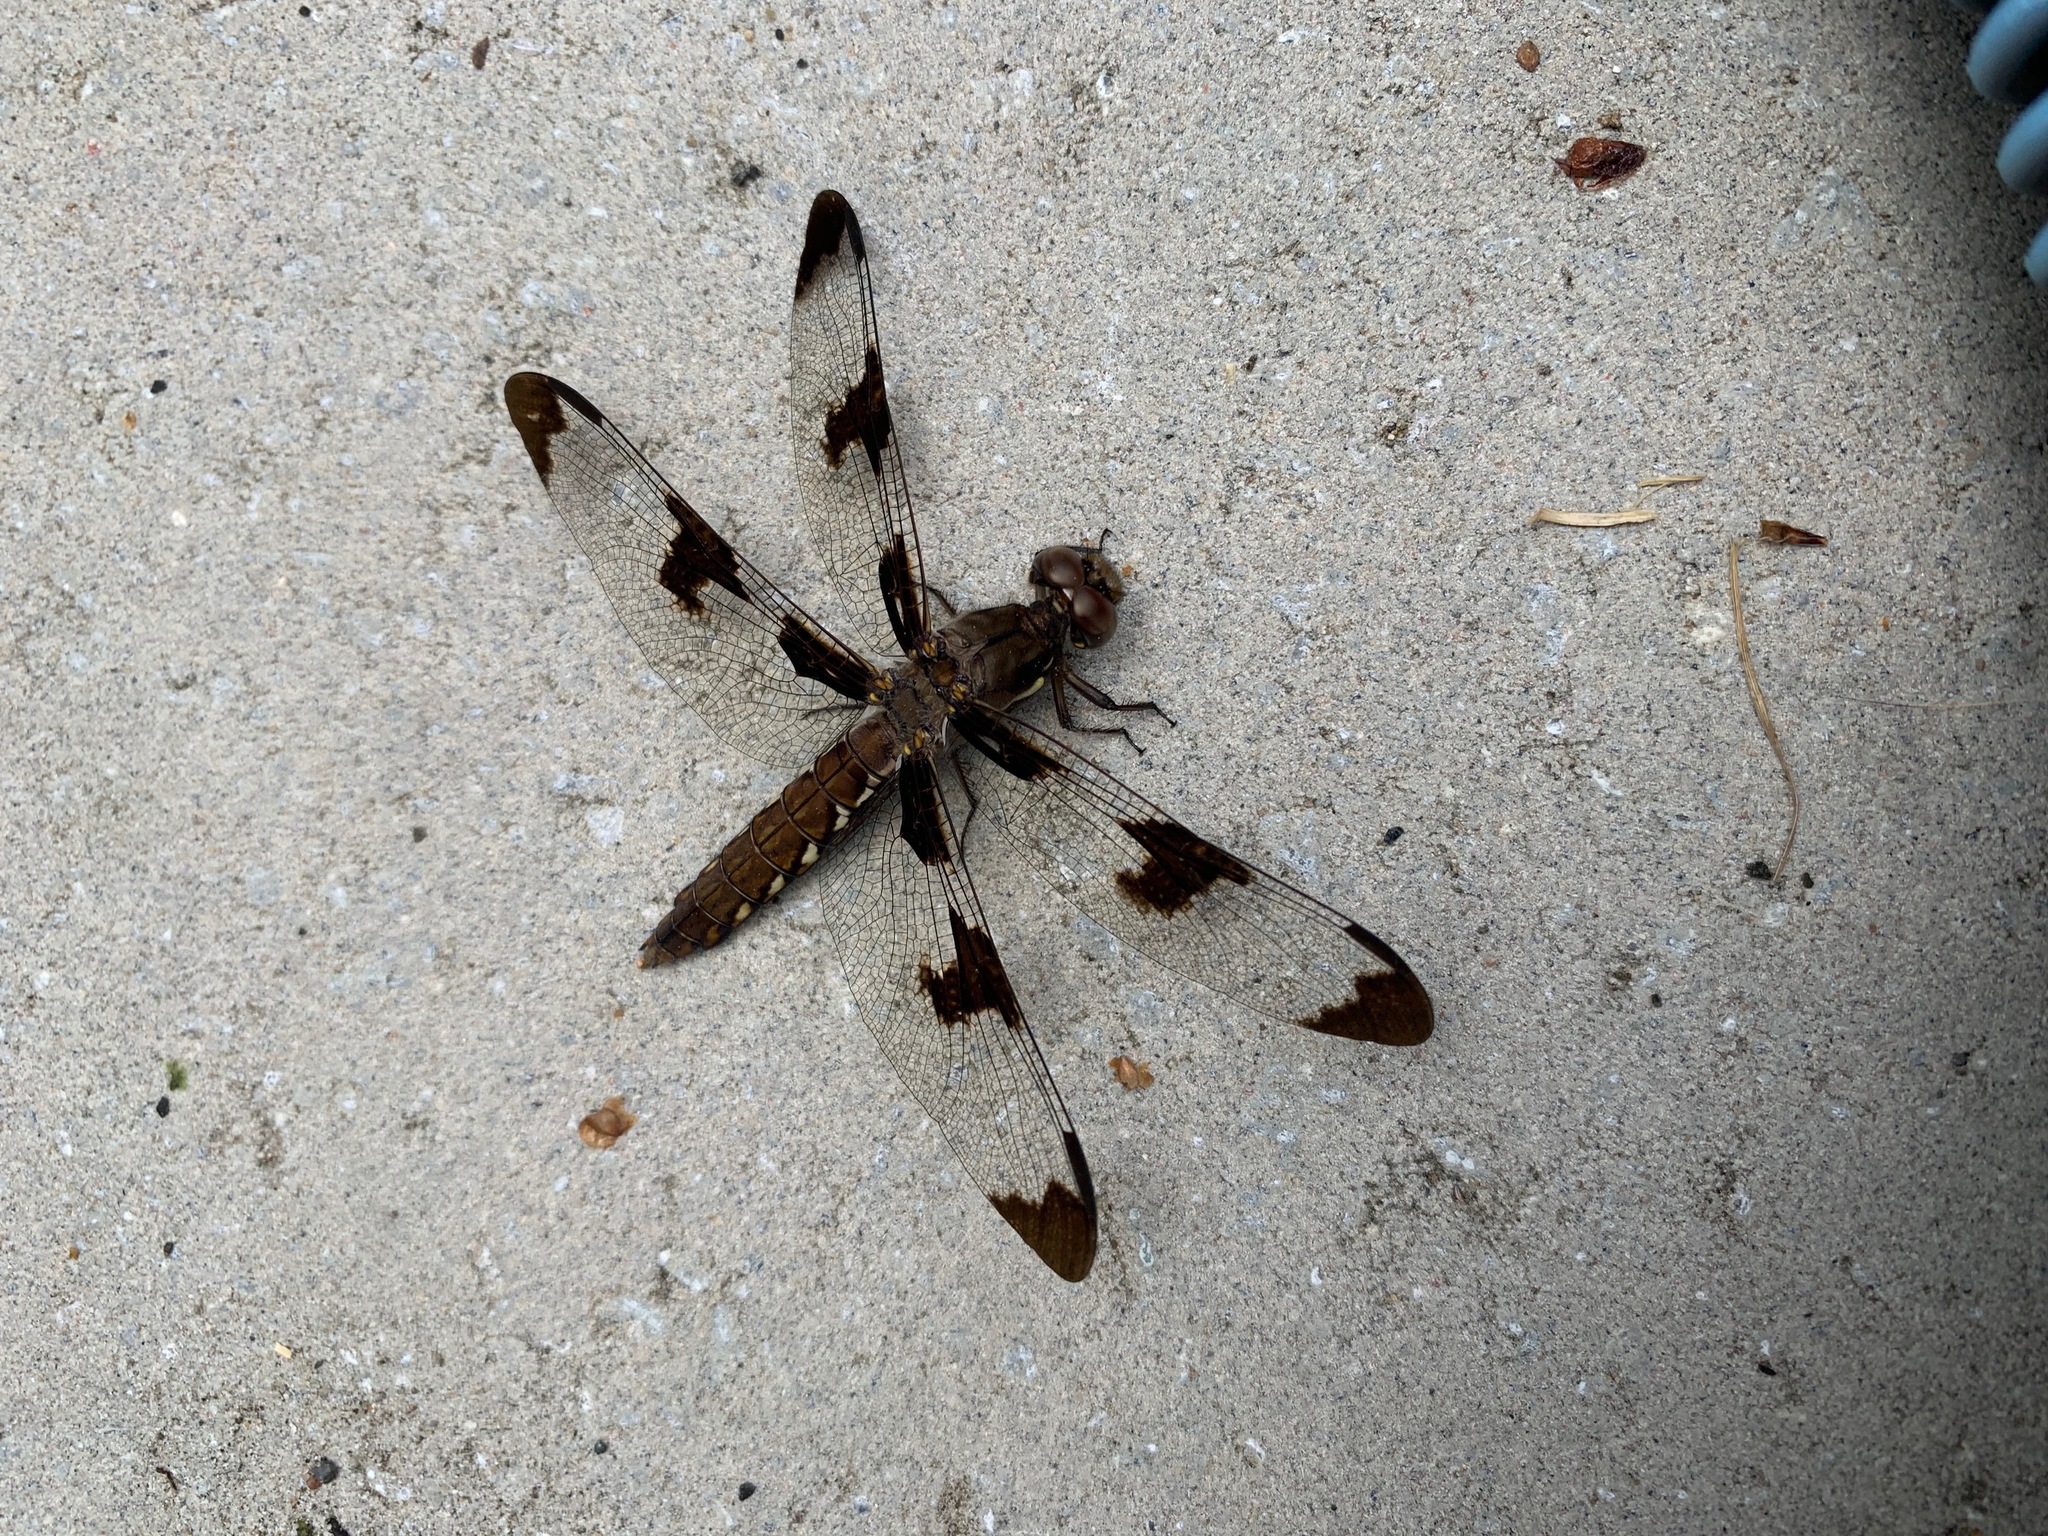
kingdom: Animalia
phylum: Arthropoda
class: Insecta
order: Odonata
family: Libellulidae
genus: Plathemis
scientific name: Plathemis lydia
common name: Common whitetail
